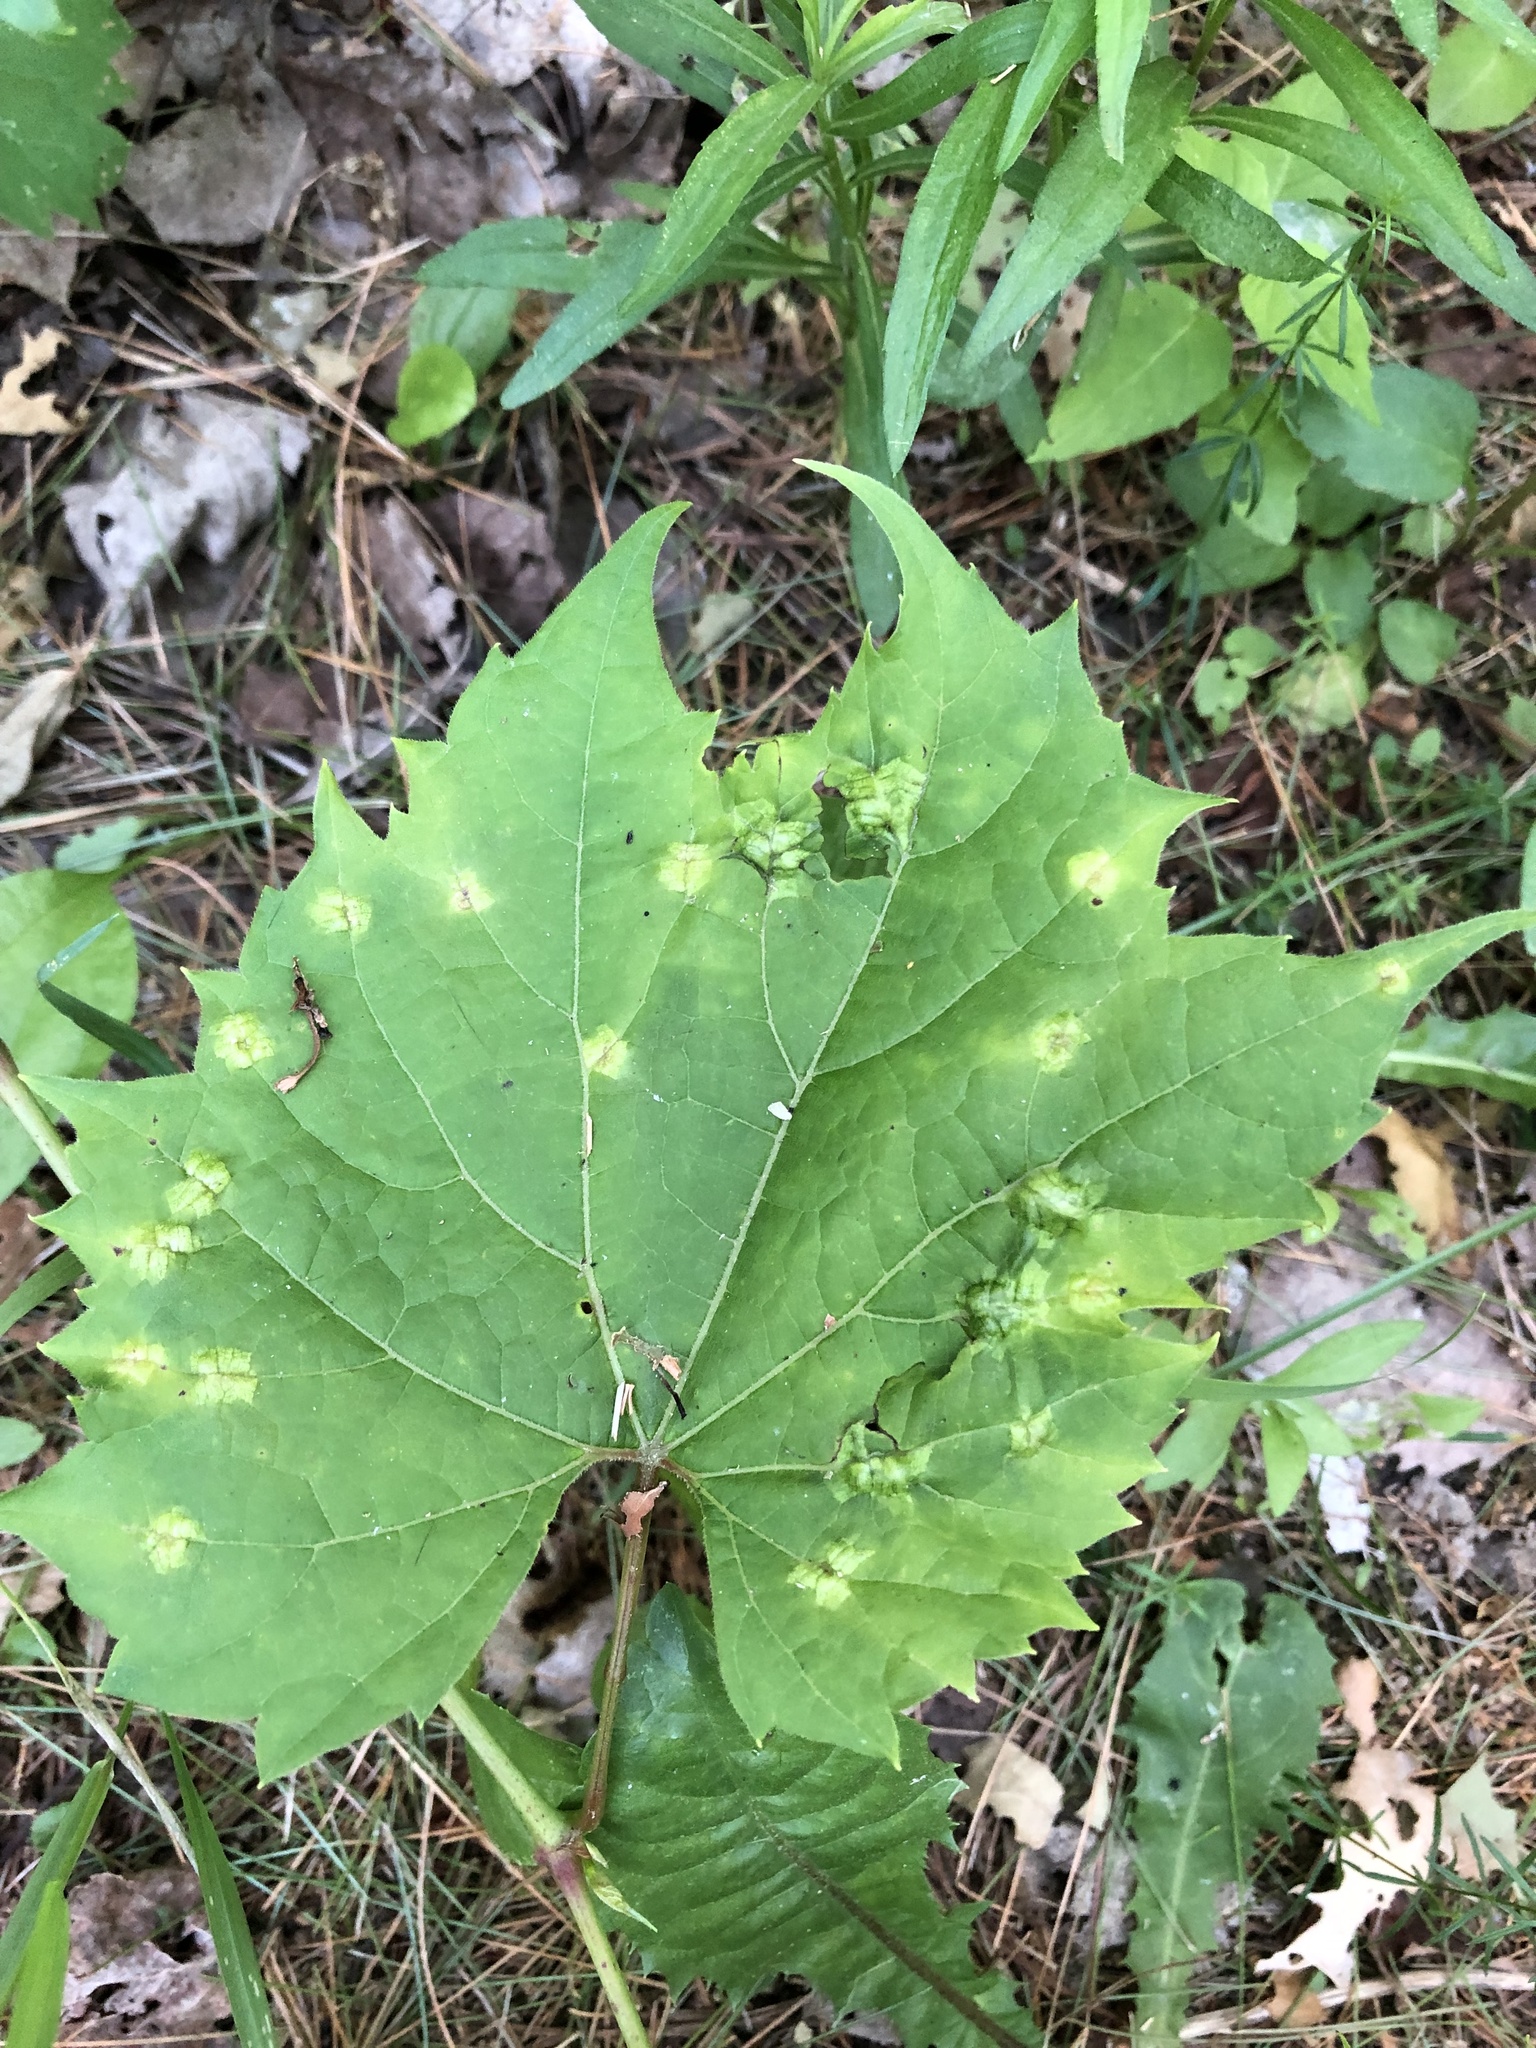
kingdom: Animalia
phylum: Arthropoda
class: Insecta
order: Lepidoptera
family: Heliozelidae
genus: Heliozela
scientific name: Heliozela aesella
